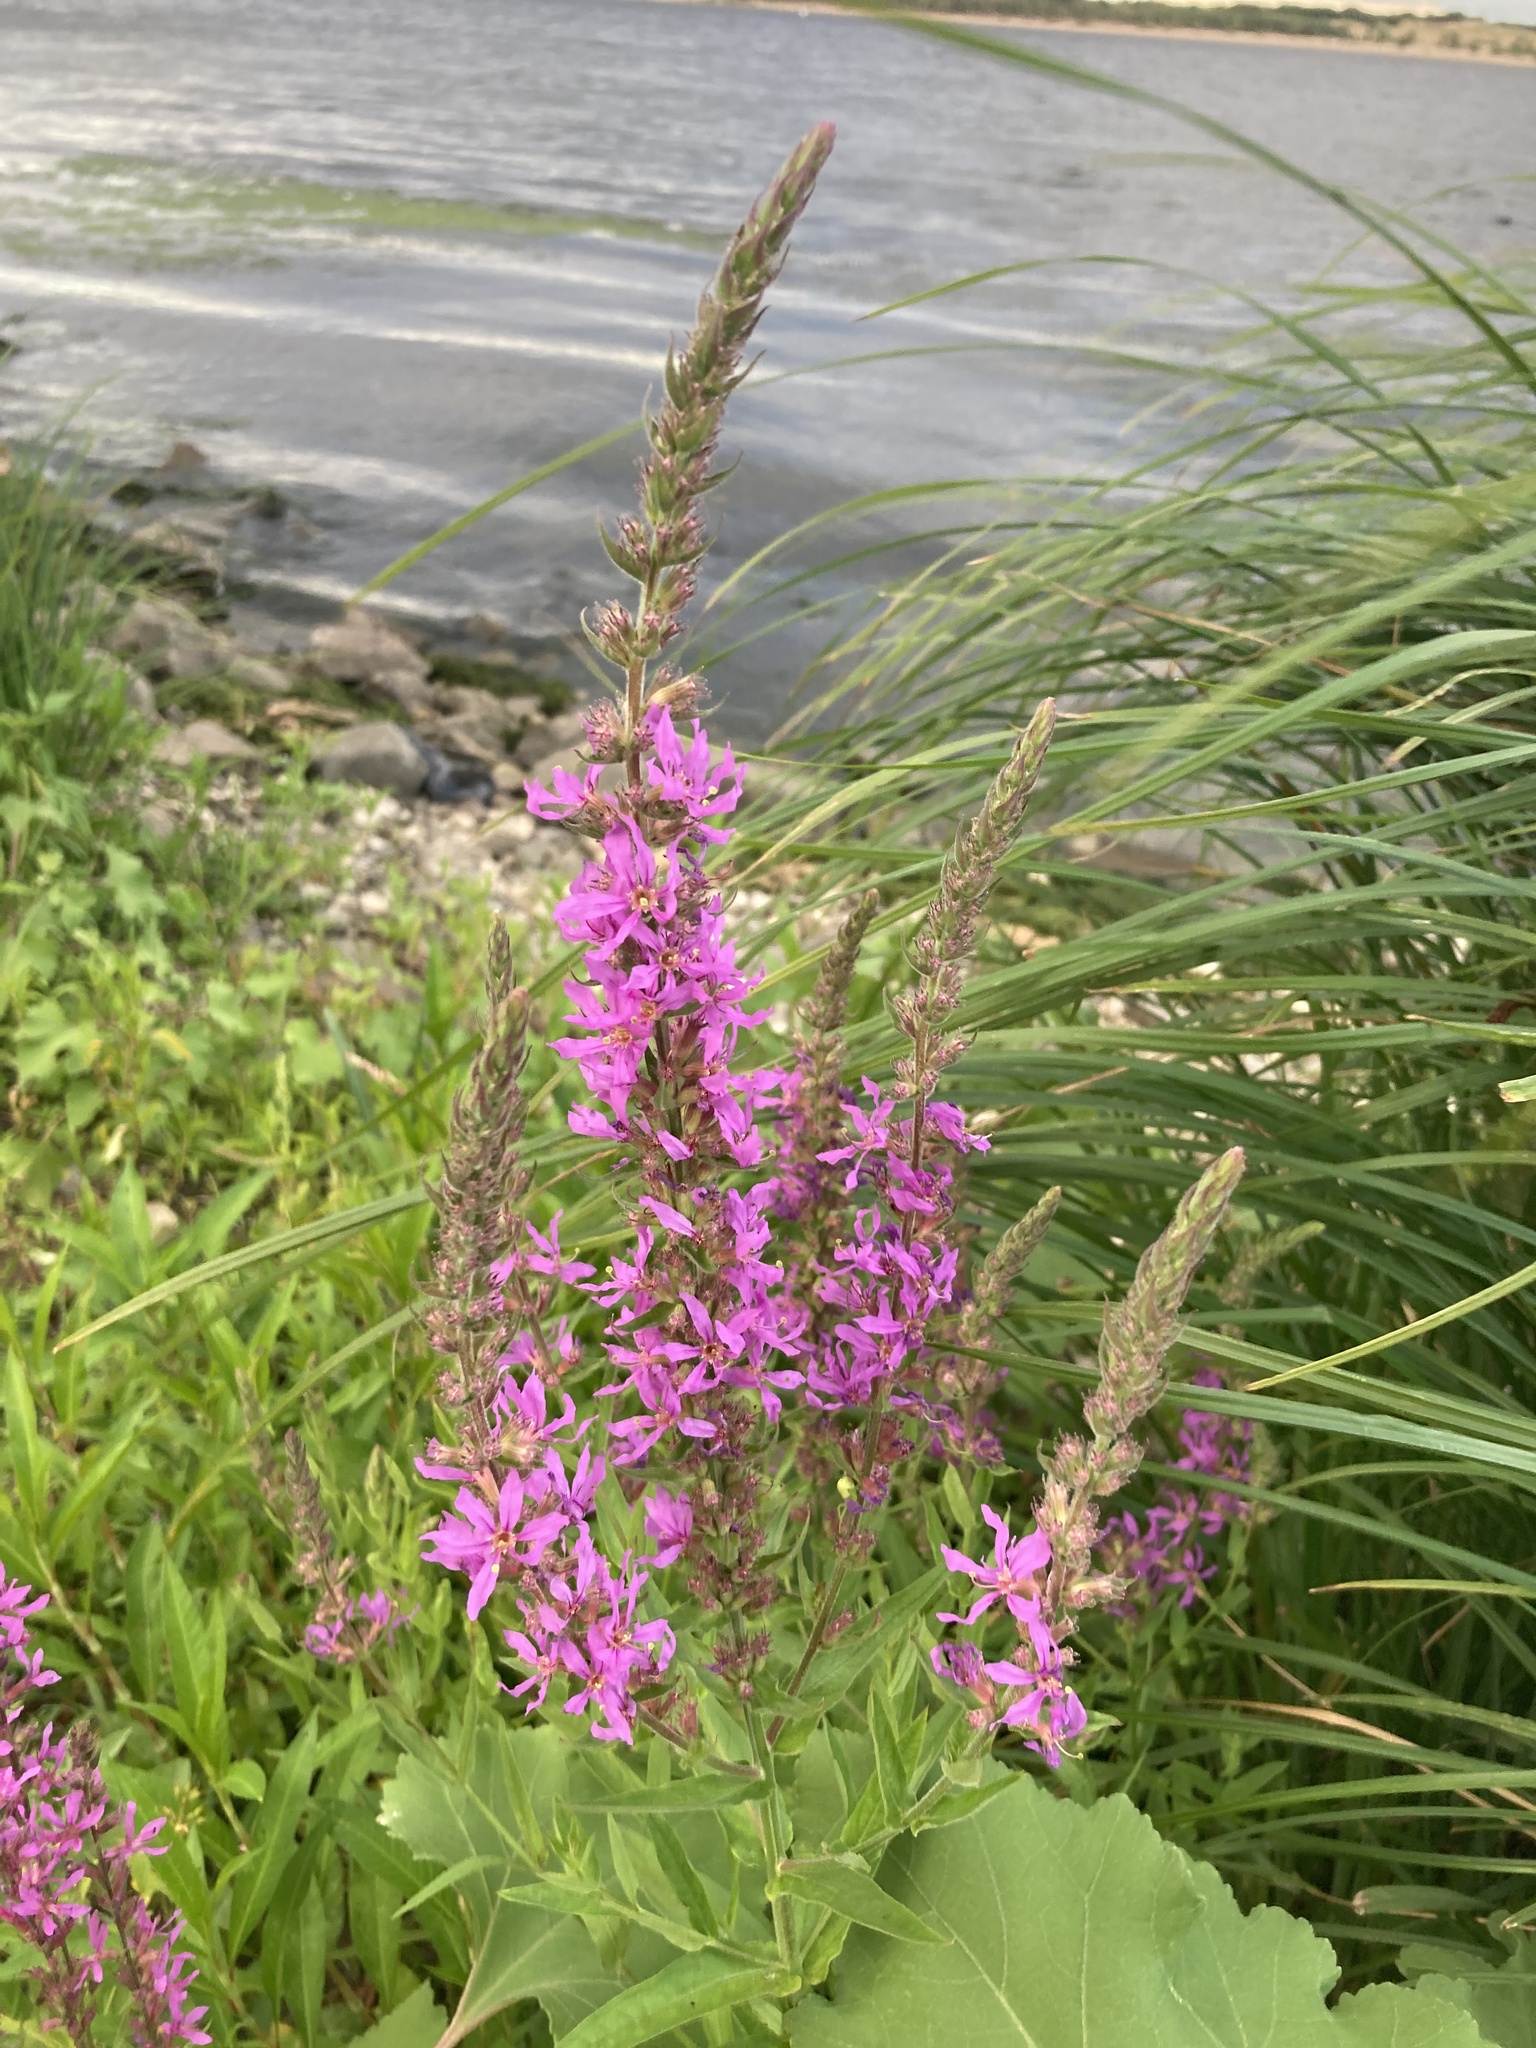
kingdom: Plantae
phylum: Tracheophyta
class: Magnoliopsida
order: Myrtales
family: Lythraceae
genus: Lythrum
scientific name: Lythrum salicaria
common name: Purple loosestrife
